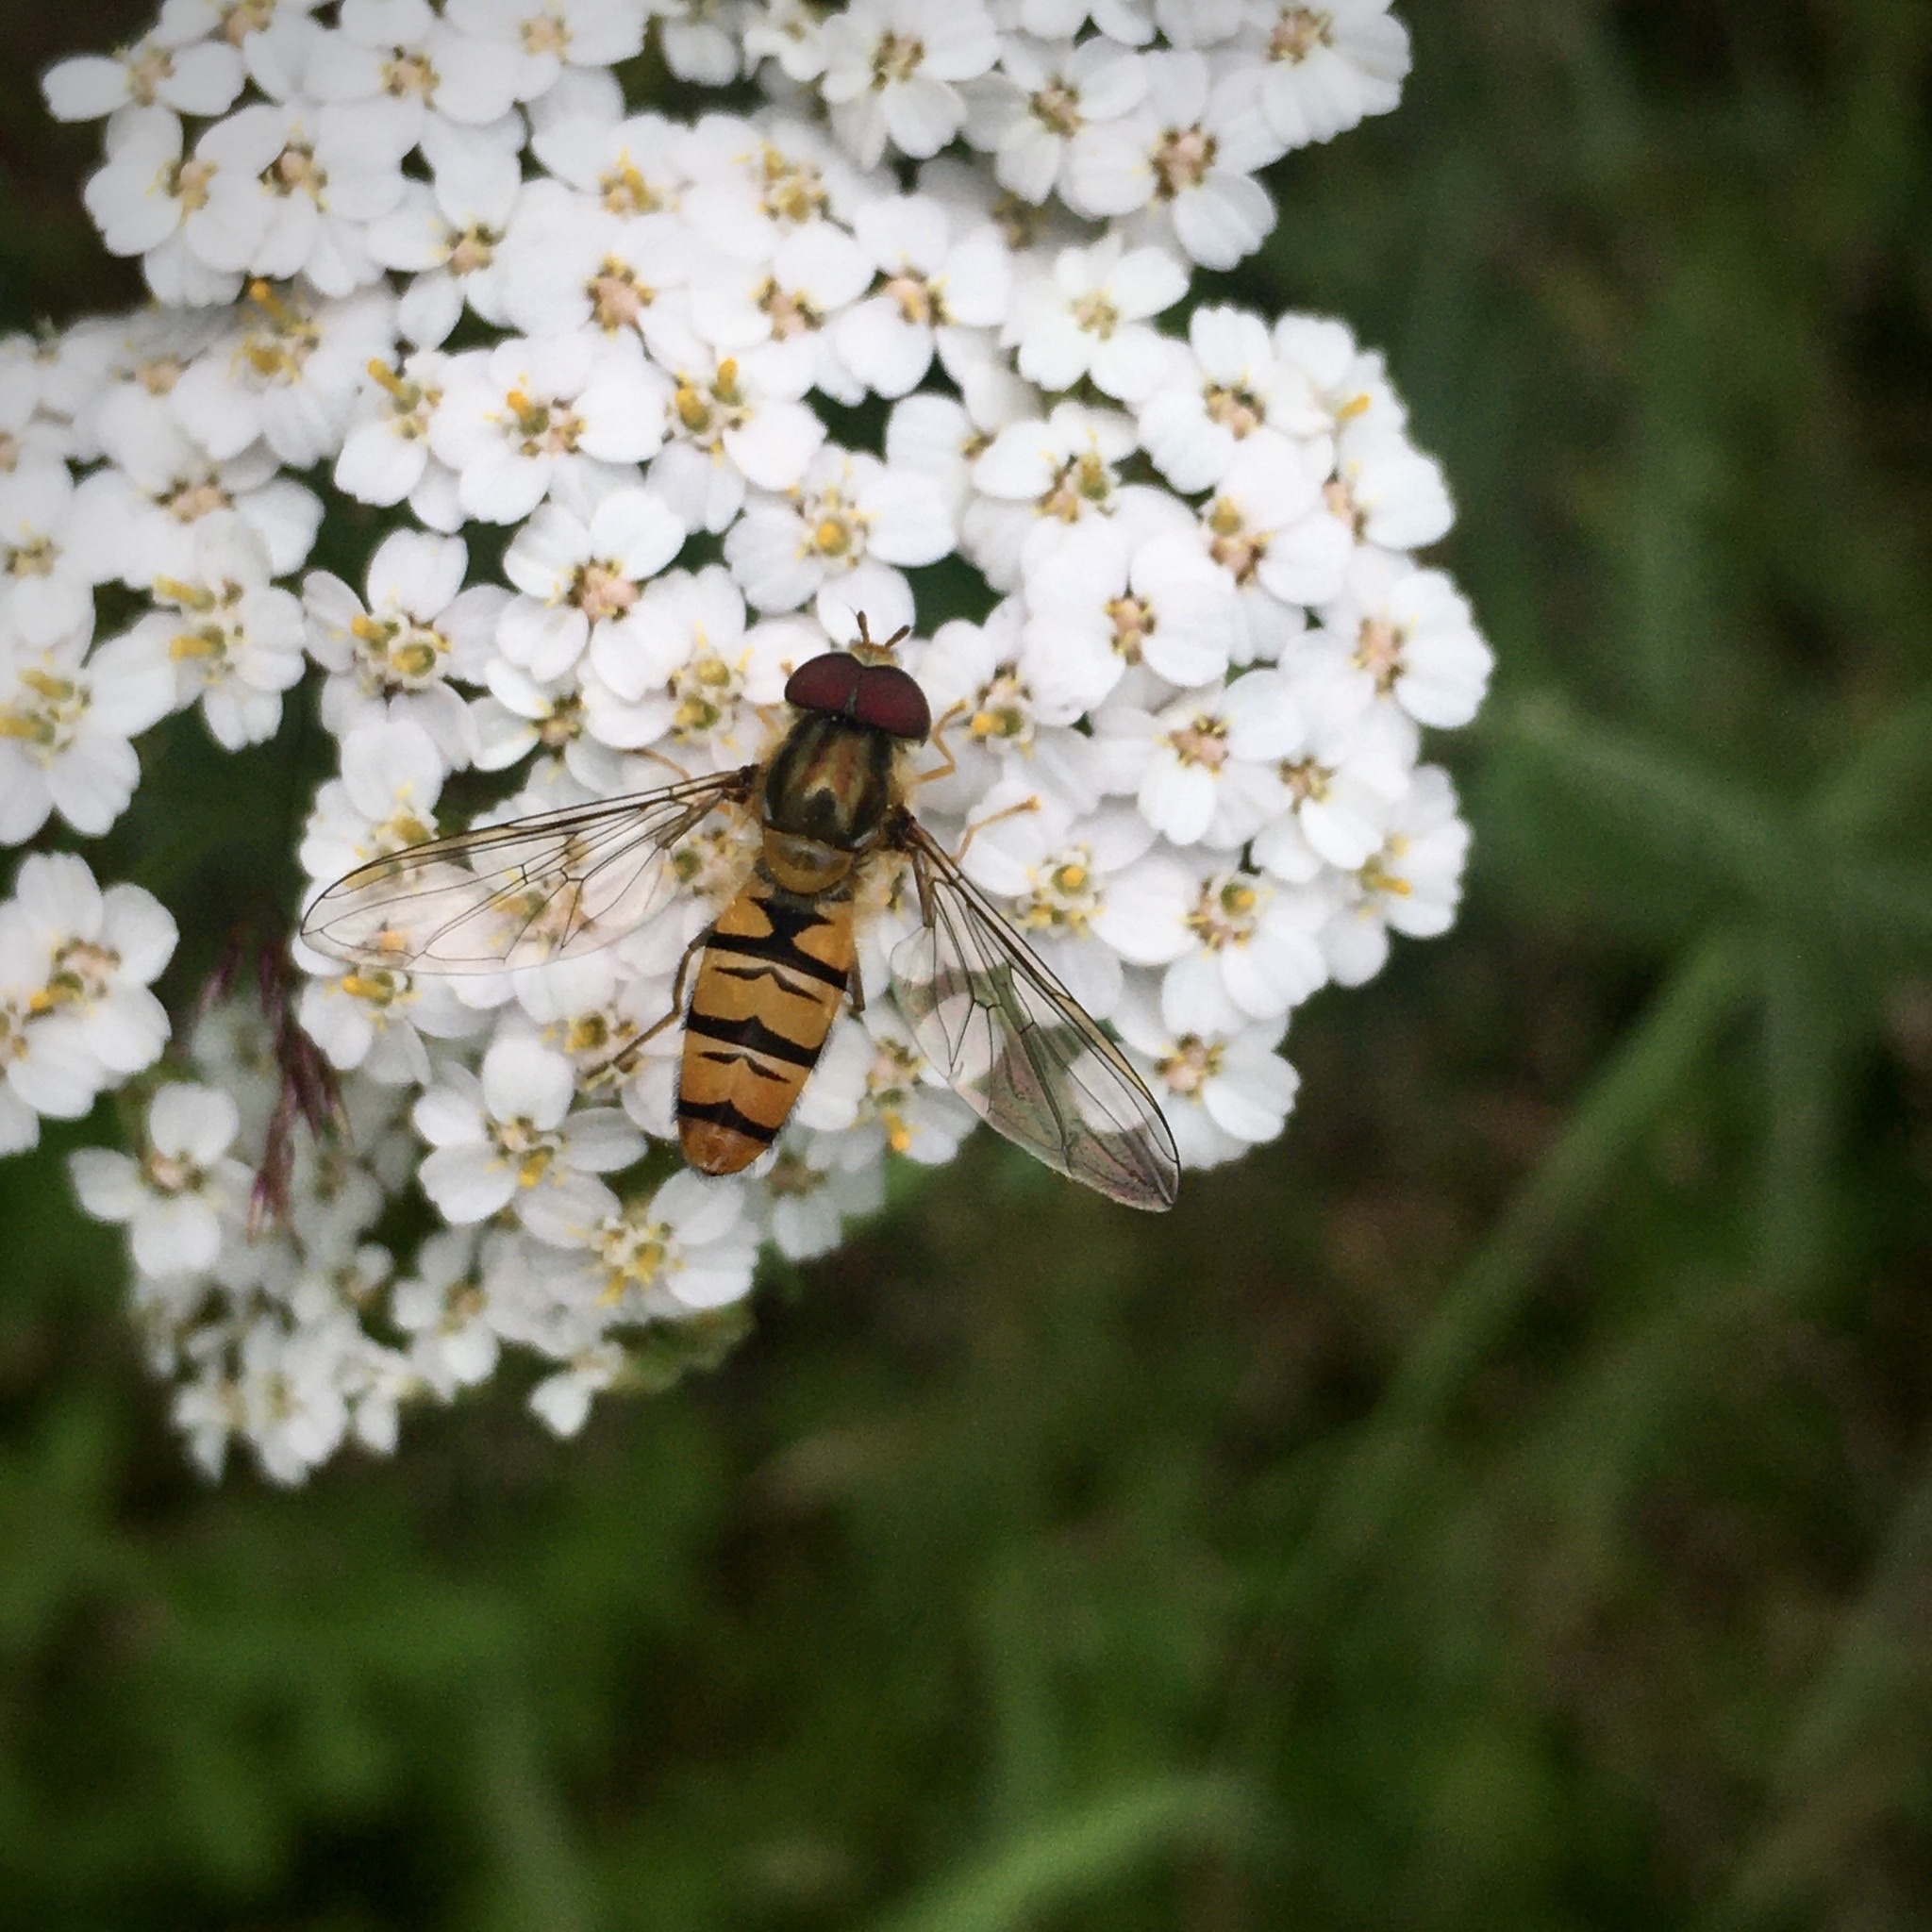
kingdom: Animalia
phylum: Arthropoda
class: Insecta
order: Diptera
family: Syrphidae
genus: Episyrphus
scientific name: Episyrphus balteatus
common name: Marmalade hoverfly
